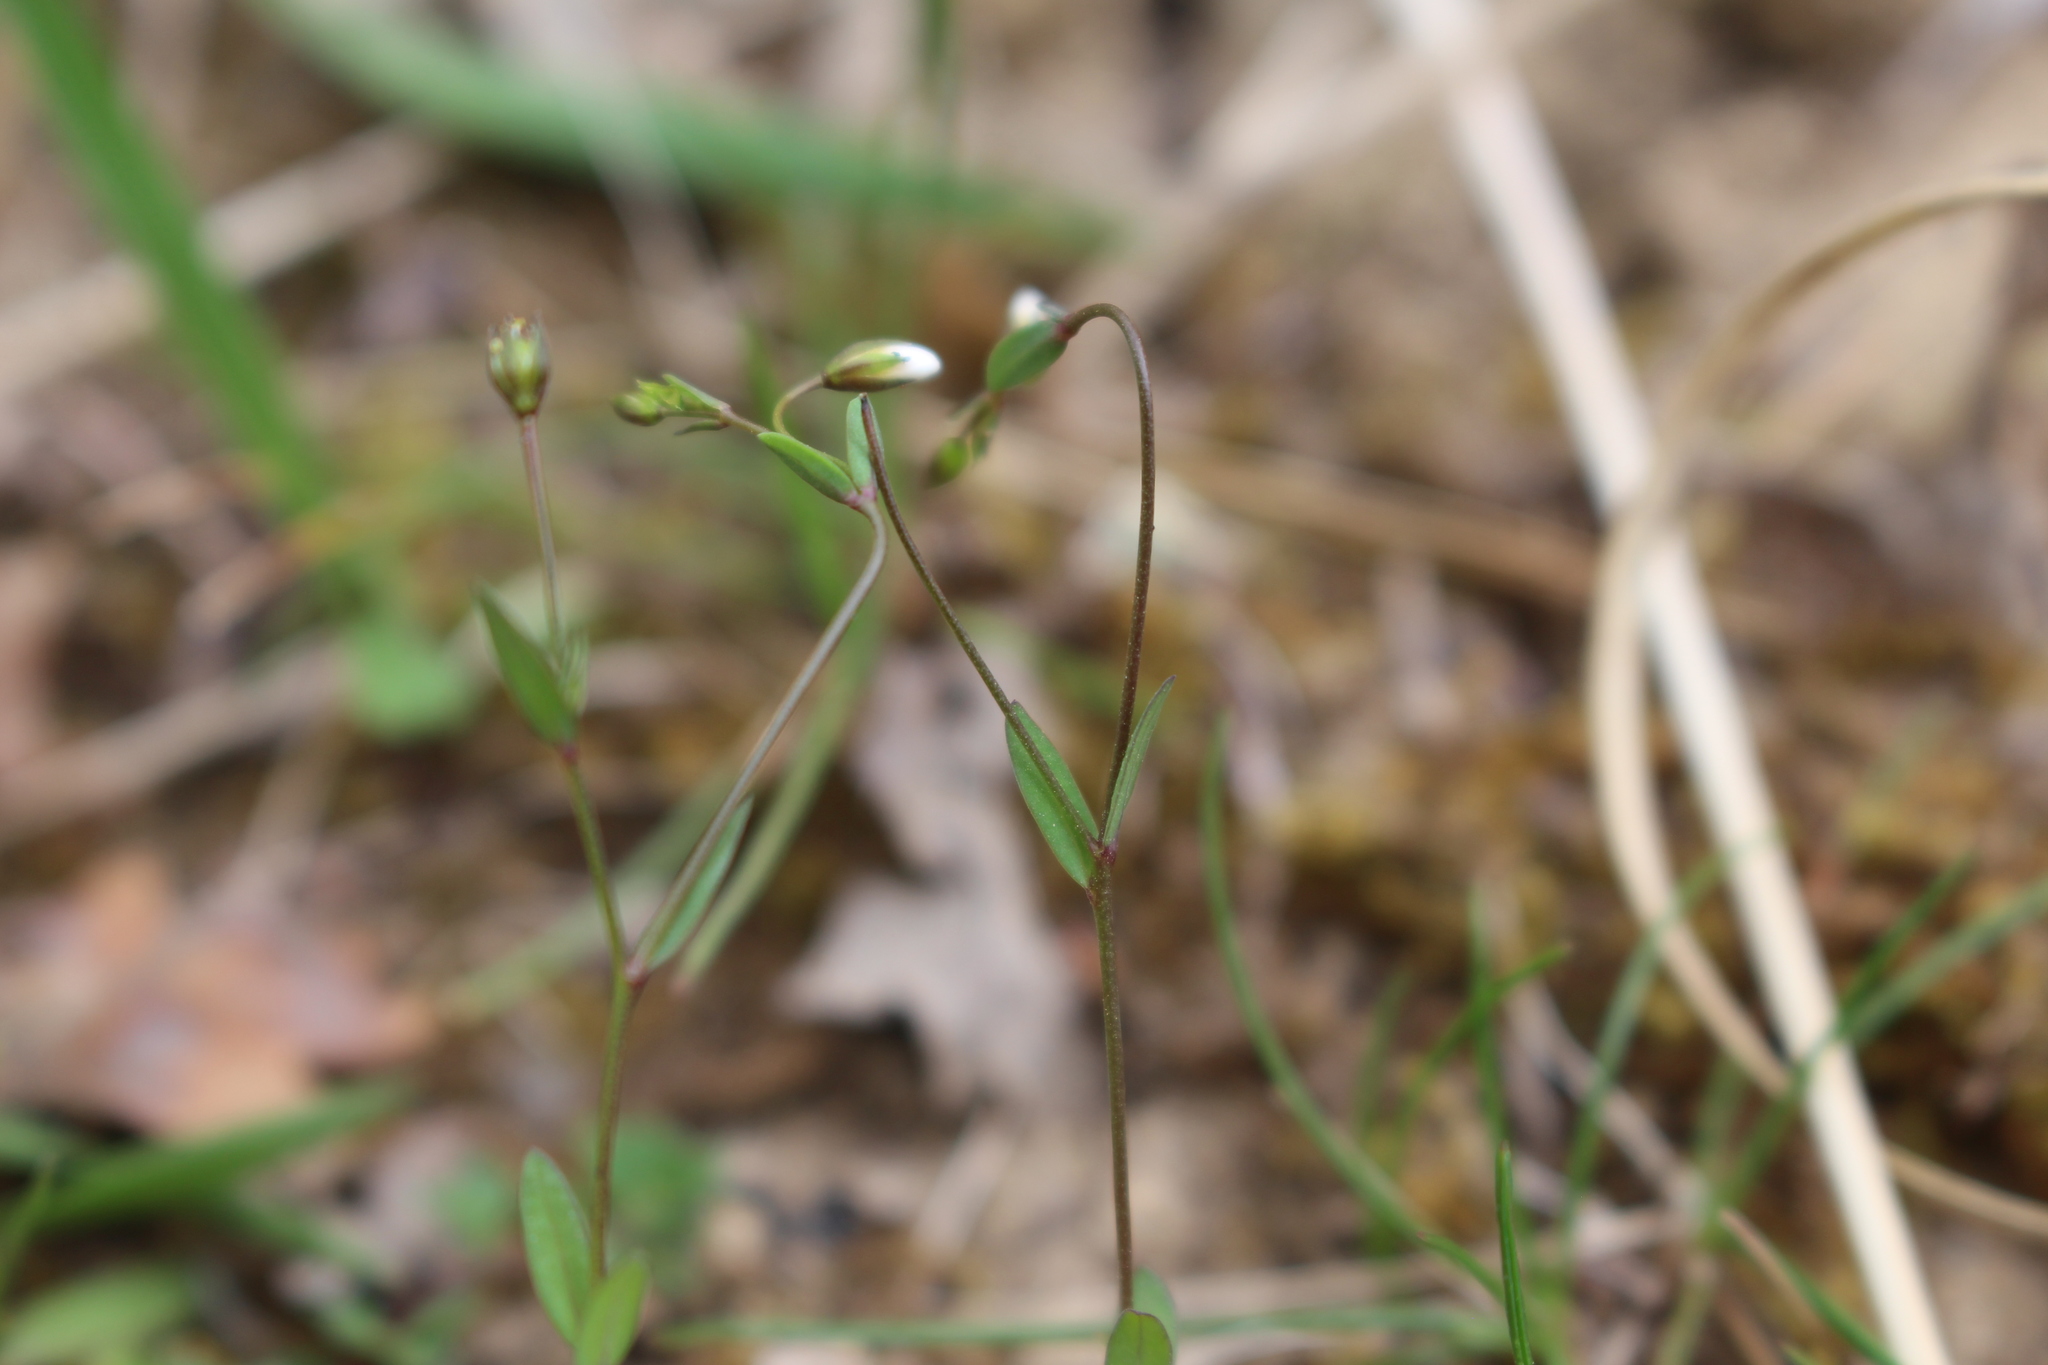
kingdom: Plantae
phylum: Tracheophyta
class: Magnoliopsida
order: Malpighiales
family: Linaceae
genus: Linum
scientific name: Linum catharticum
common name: Fairy flax
